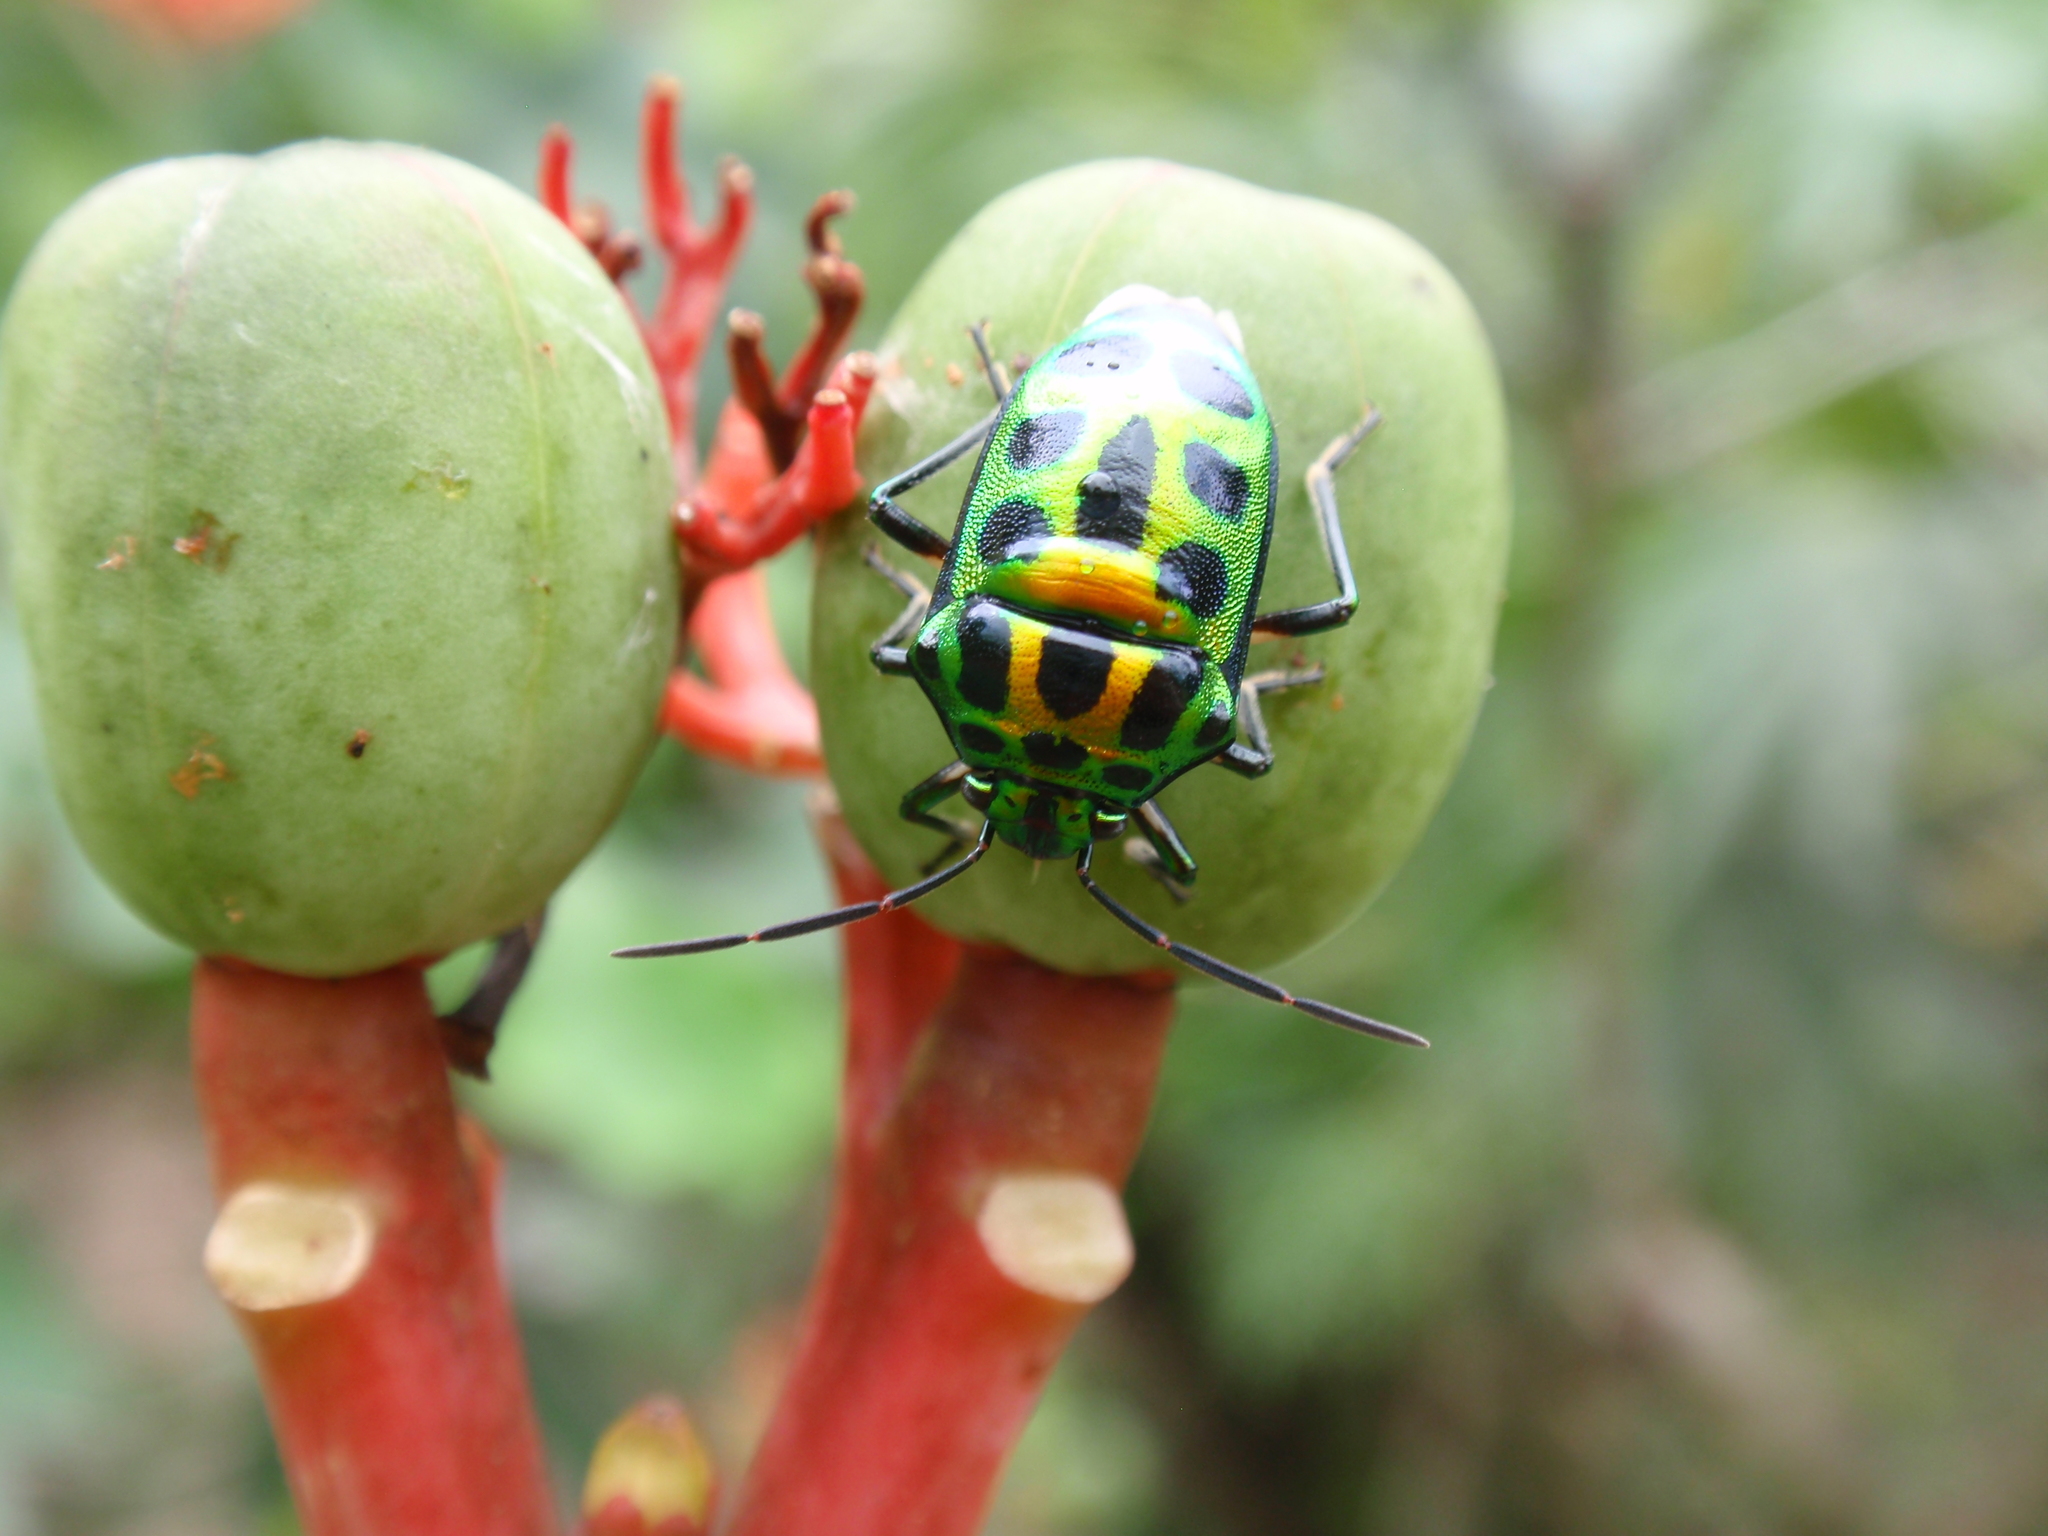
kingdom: Animalia
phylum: Arthropoda
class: Insecta
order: Hemiptera
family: Scutelleridae
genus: Chrysocoris
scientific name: Chrysocoris stockerus
